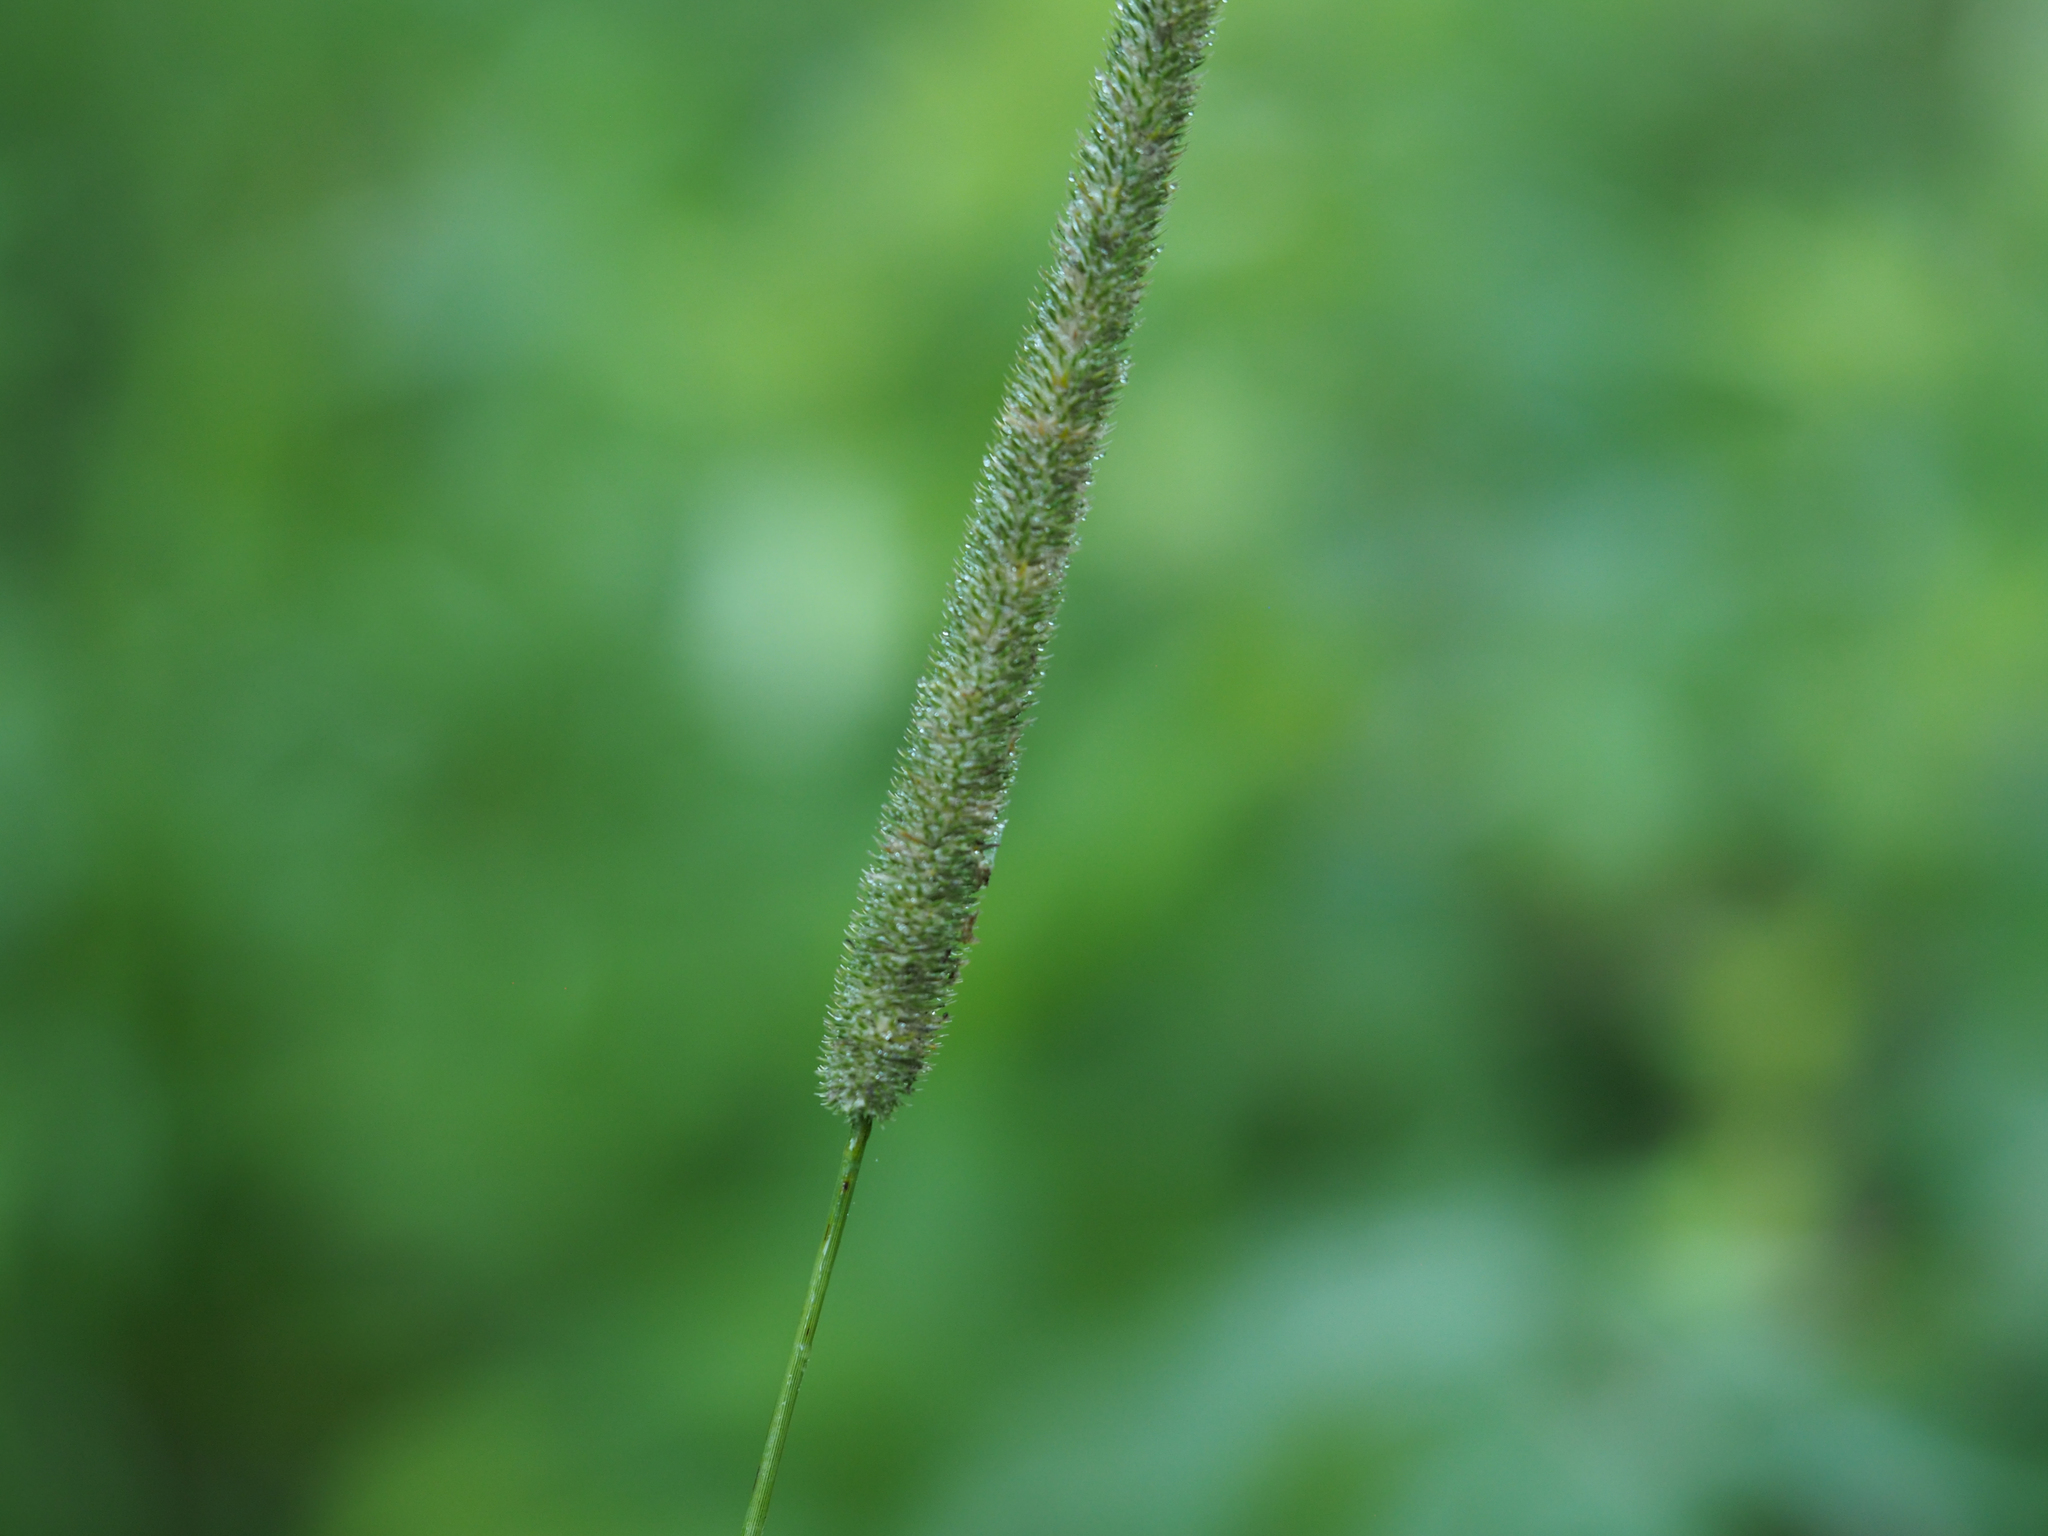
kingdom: Plantae
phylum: Tracheophyta
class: Liliopsida
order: Poales
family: Poaceae
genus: Phleum
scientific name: Phleum pratense
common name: Timothy grass
